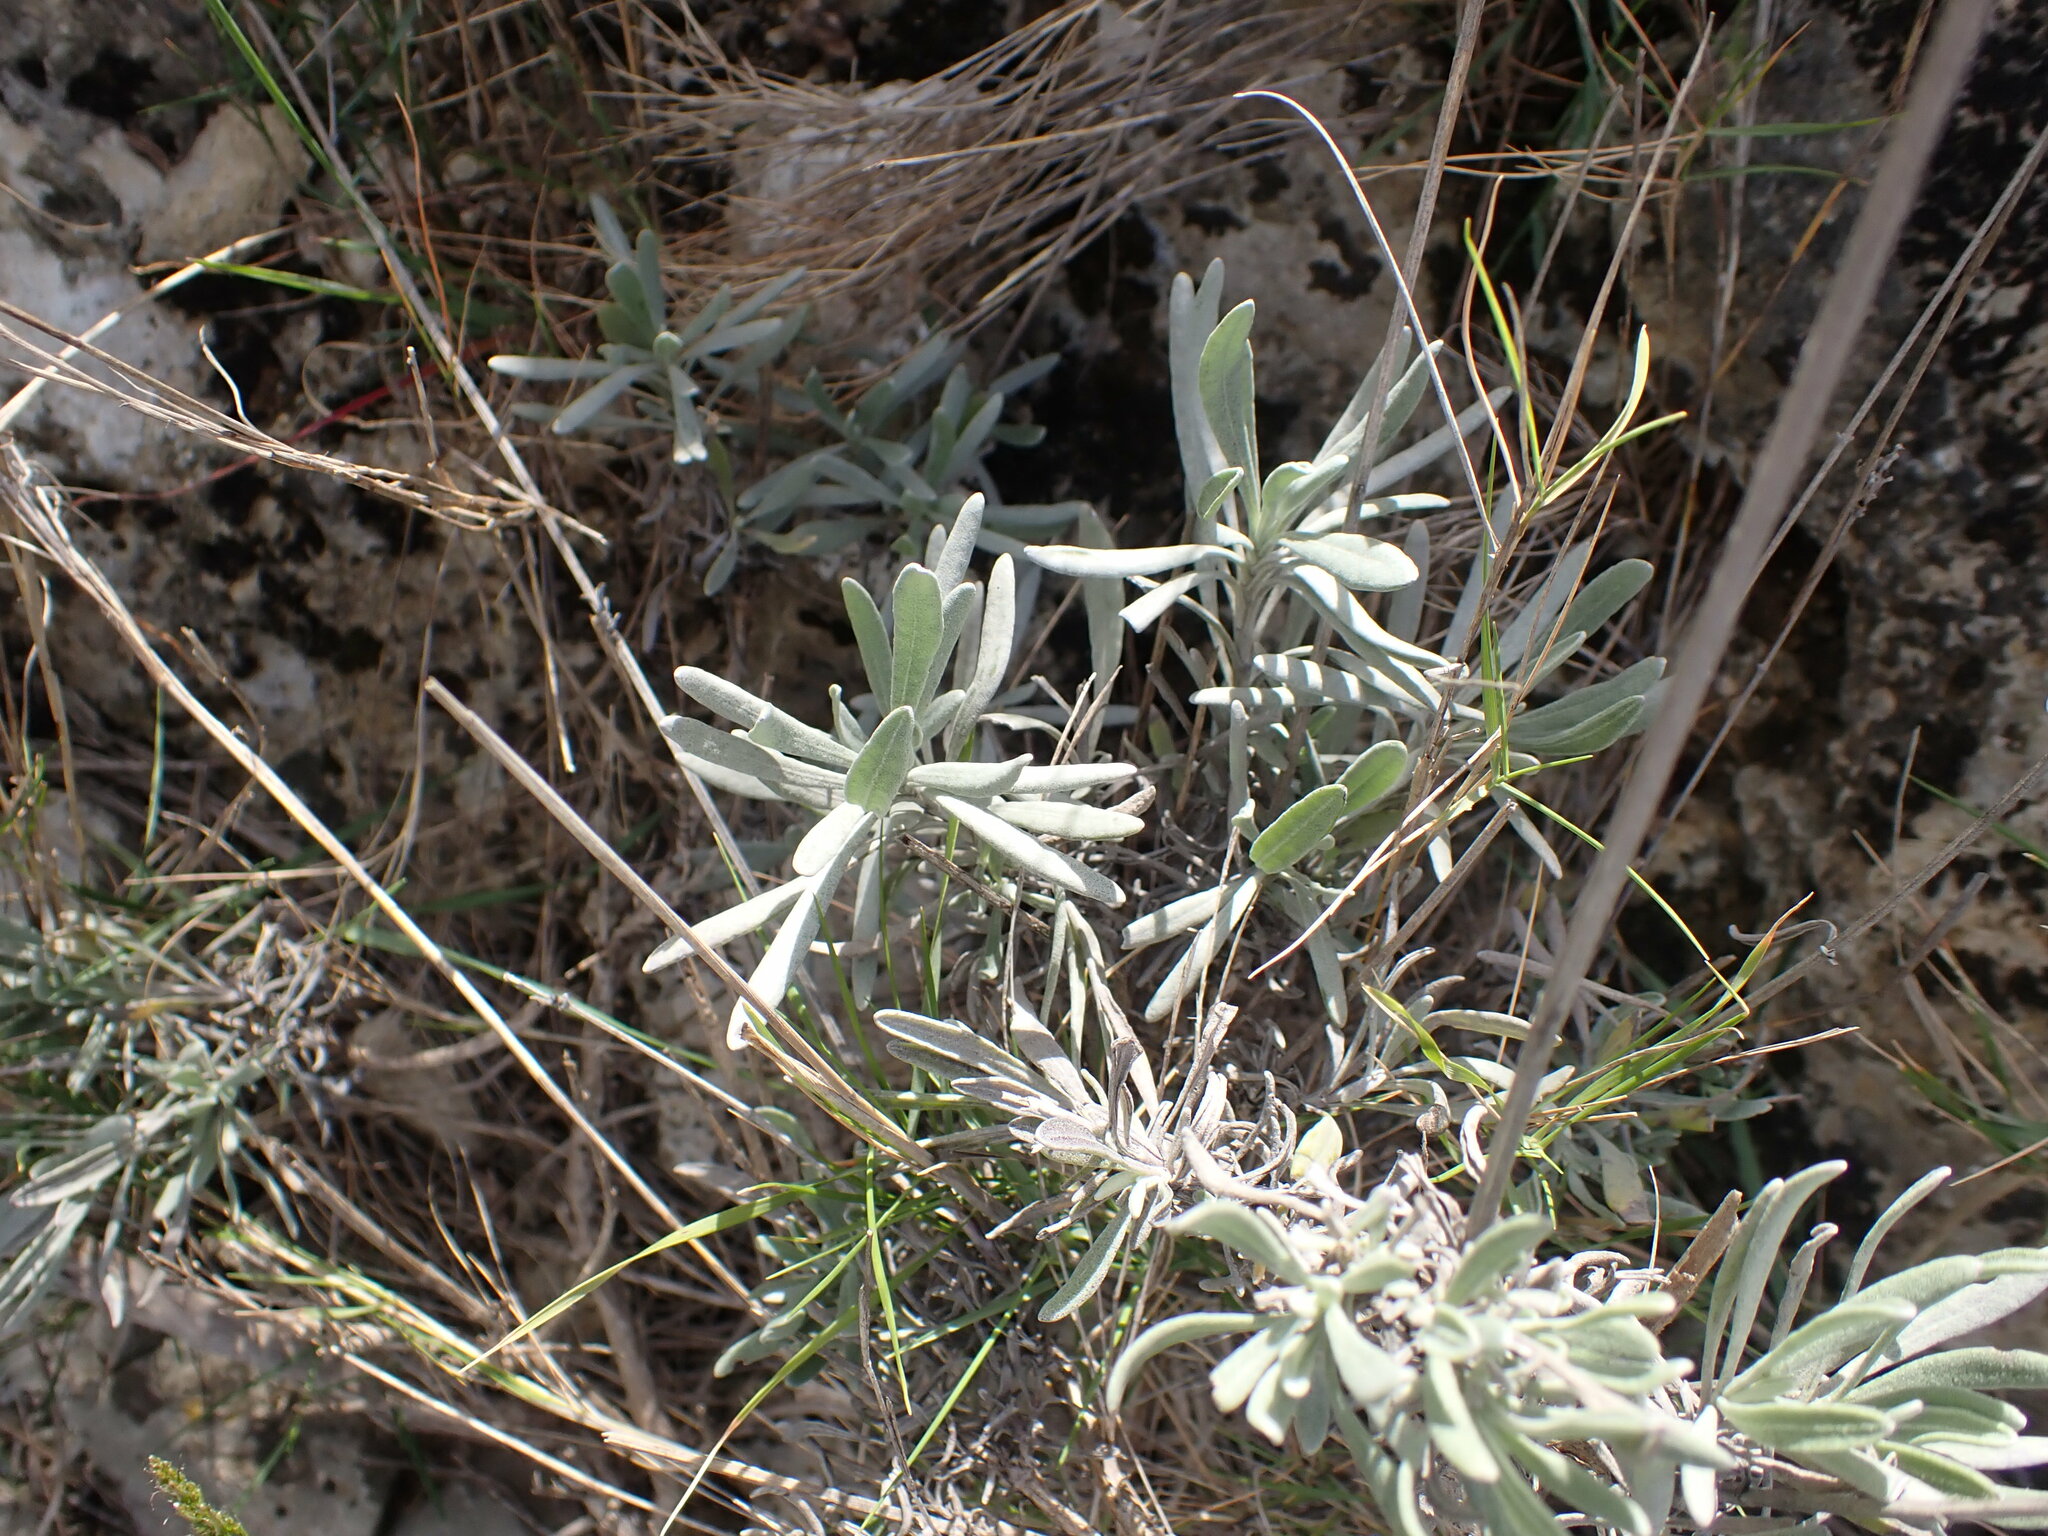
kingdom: Plantae
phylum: Tracheophyta
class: Magnoliopsida
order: Lamiales
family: Lamiaceae
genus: Lavandula
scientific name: Lavandula latifolia
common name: Spike lavendar
